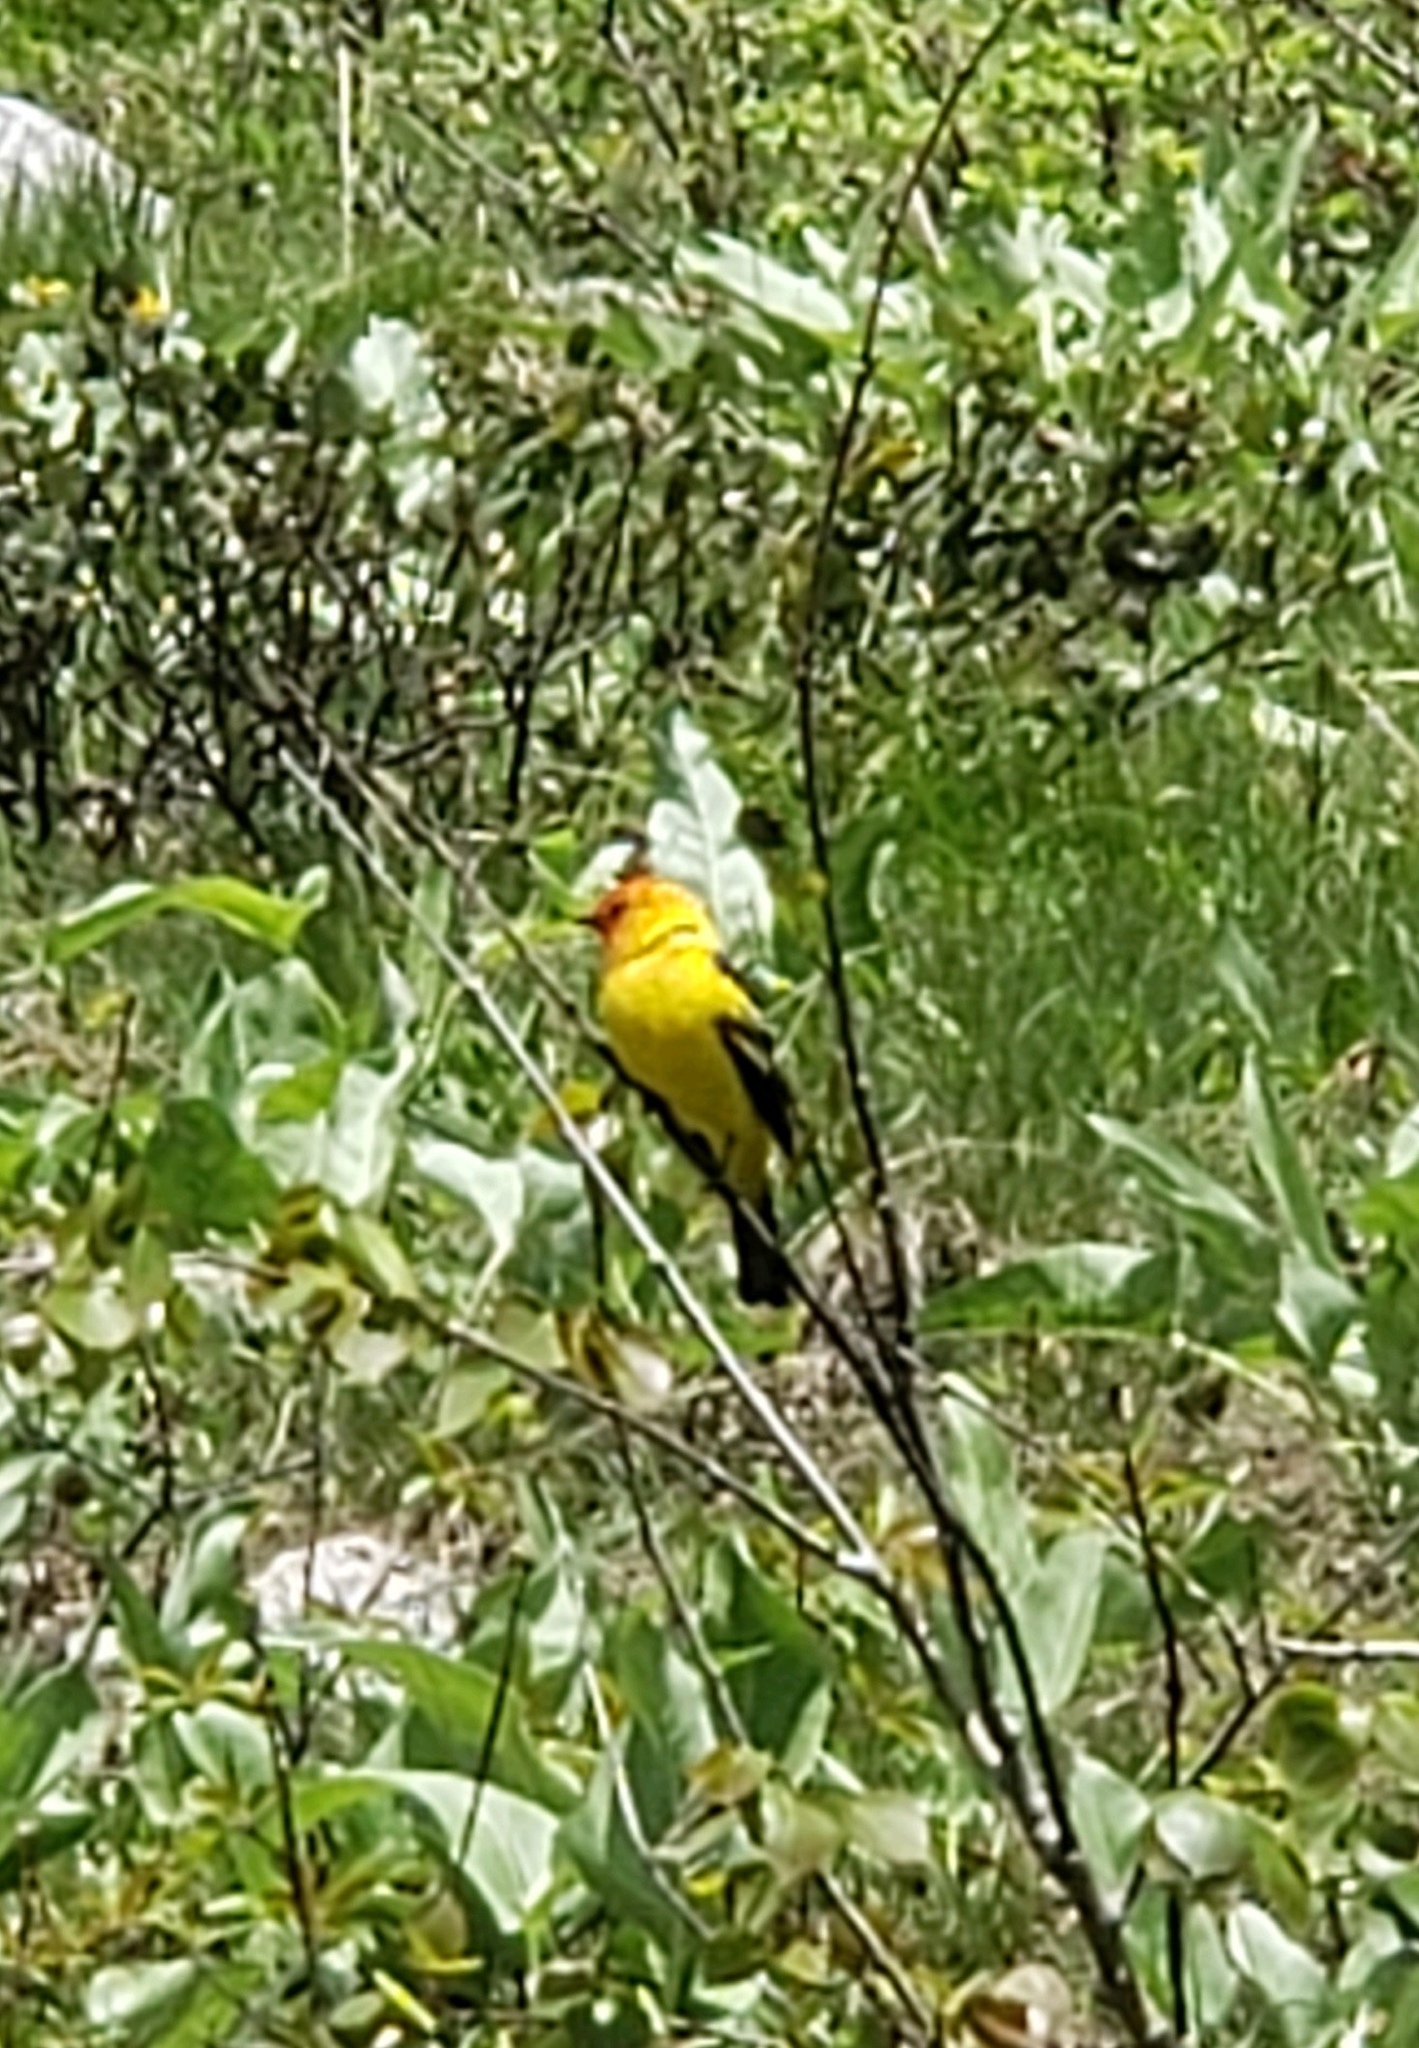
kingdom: Animalia
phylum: Chordata
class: Aves
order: Passeriformes
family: Cardinalidae
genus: Piranga
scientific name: Piranga ludoviciana
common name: Western tanager
